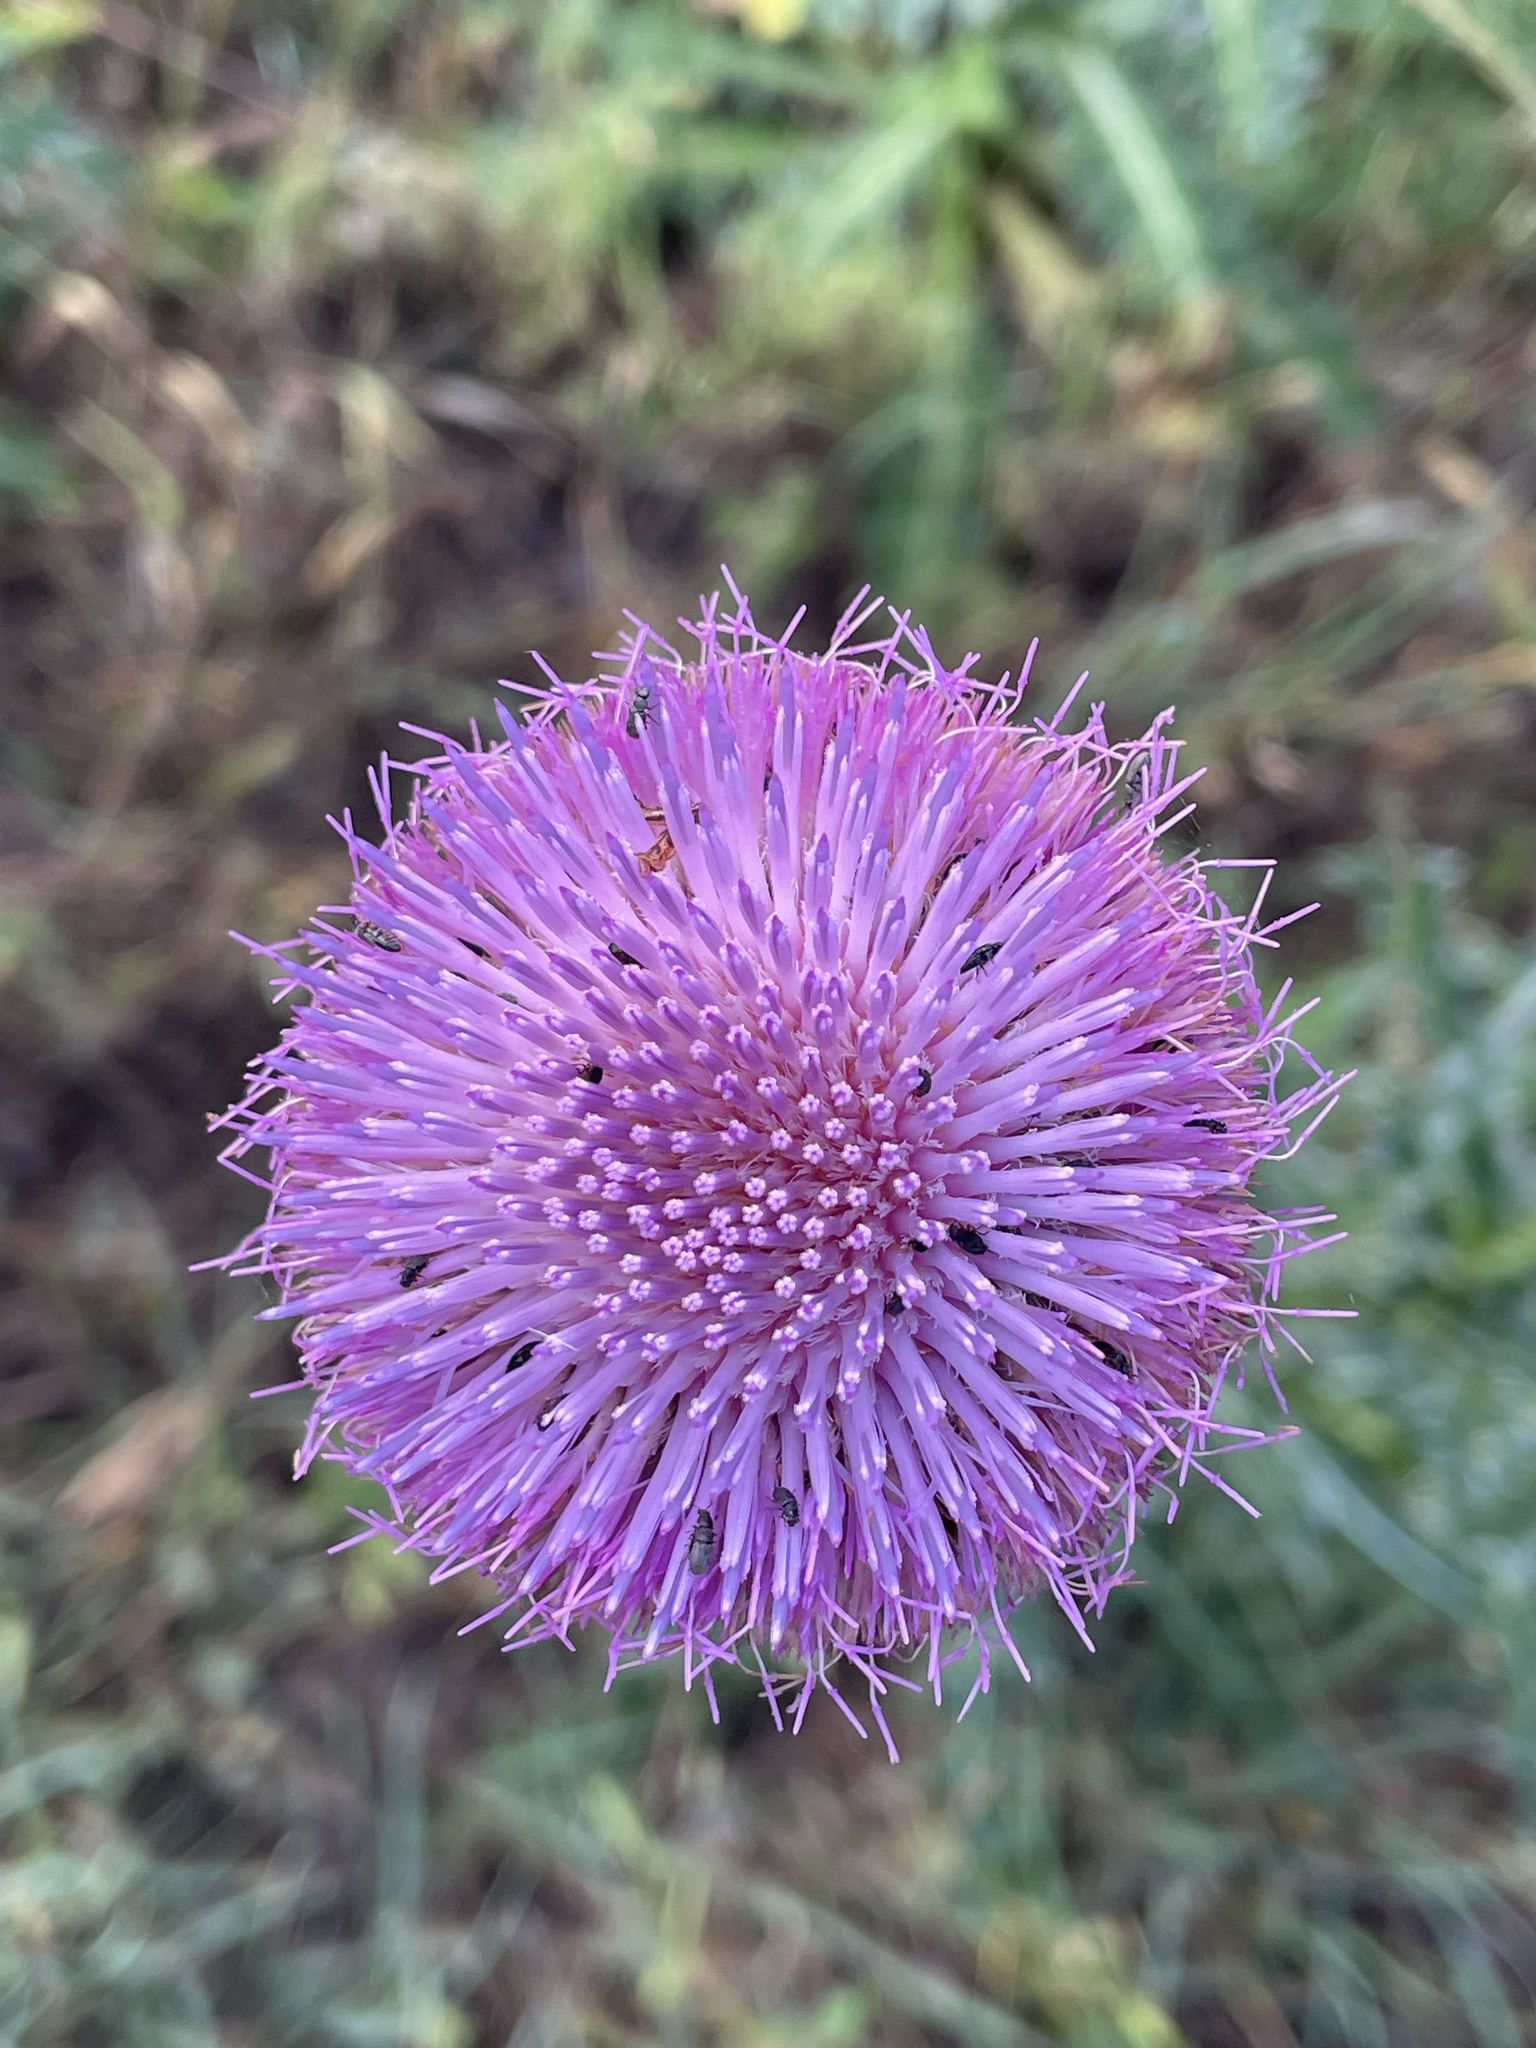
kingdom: Plantae
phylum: Tracheophyta
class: Magnoliopsida
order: Asterales
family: Asteraceae
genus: Carduus
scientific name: Carduus nutans
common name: Musk thistle
